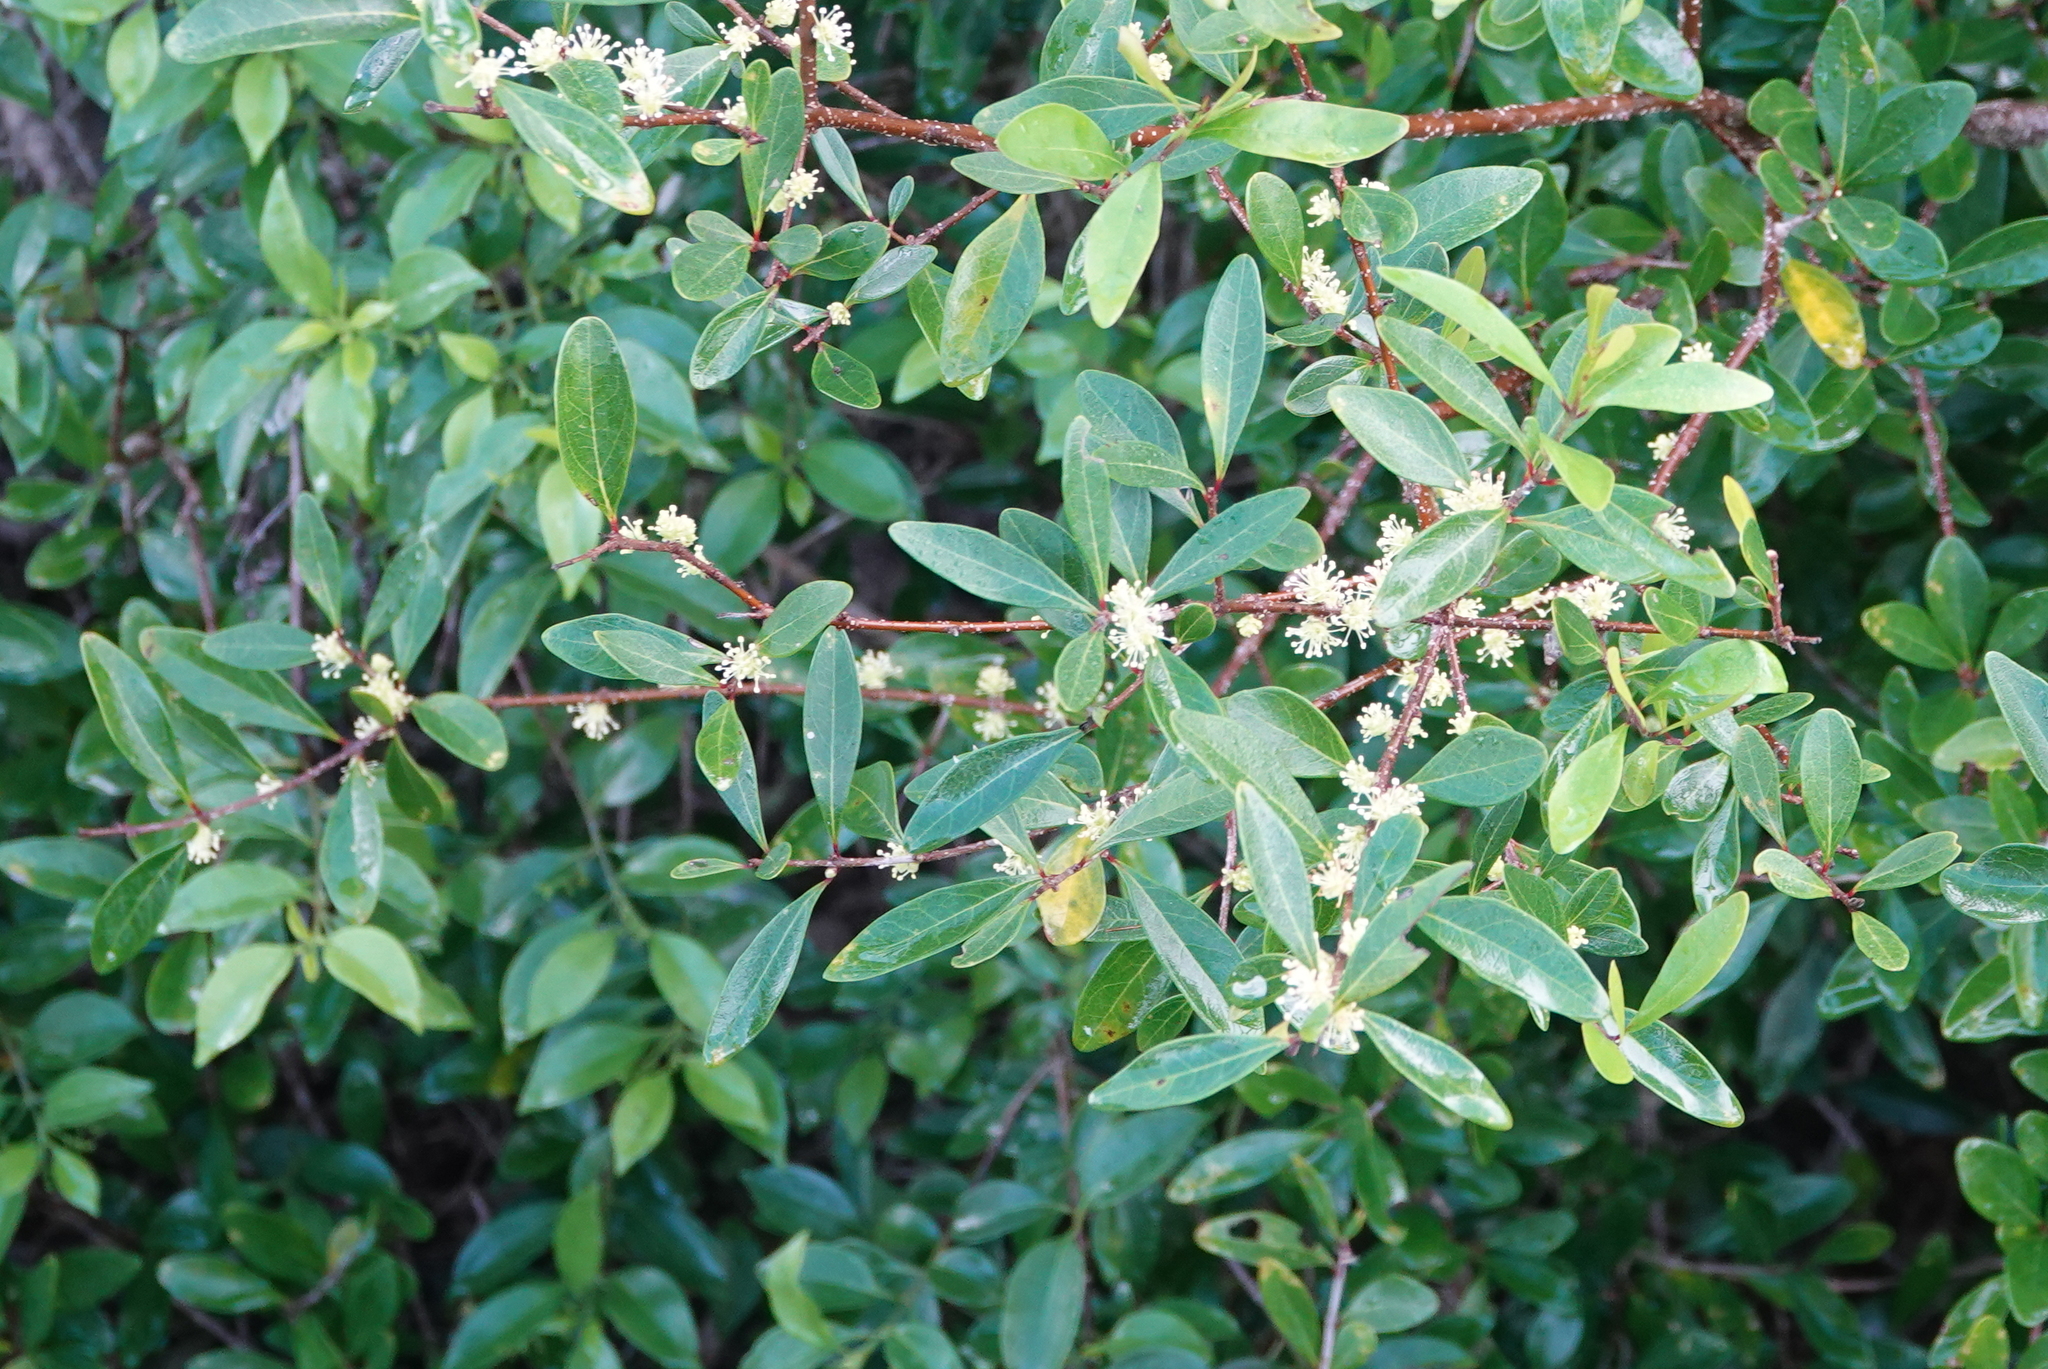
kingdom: Plantae
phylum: Tracheophyta
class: Magnoliopsida
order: Lamiales
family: Oleaceae
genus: Forestiera
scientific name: Forestiera segregata
